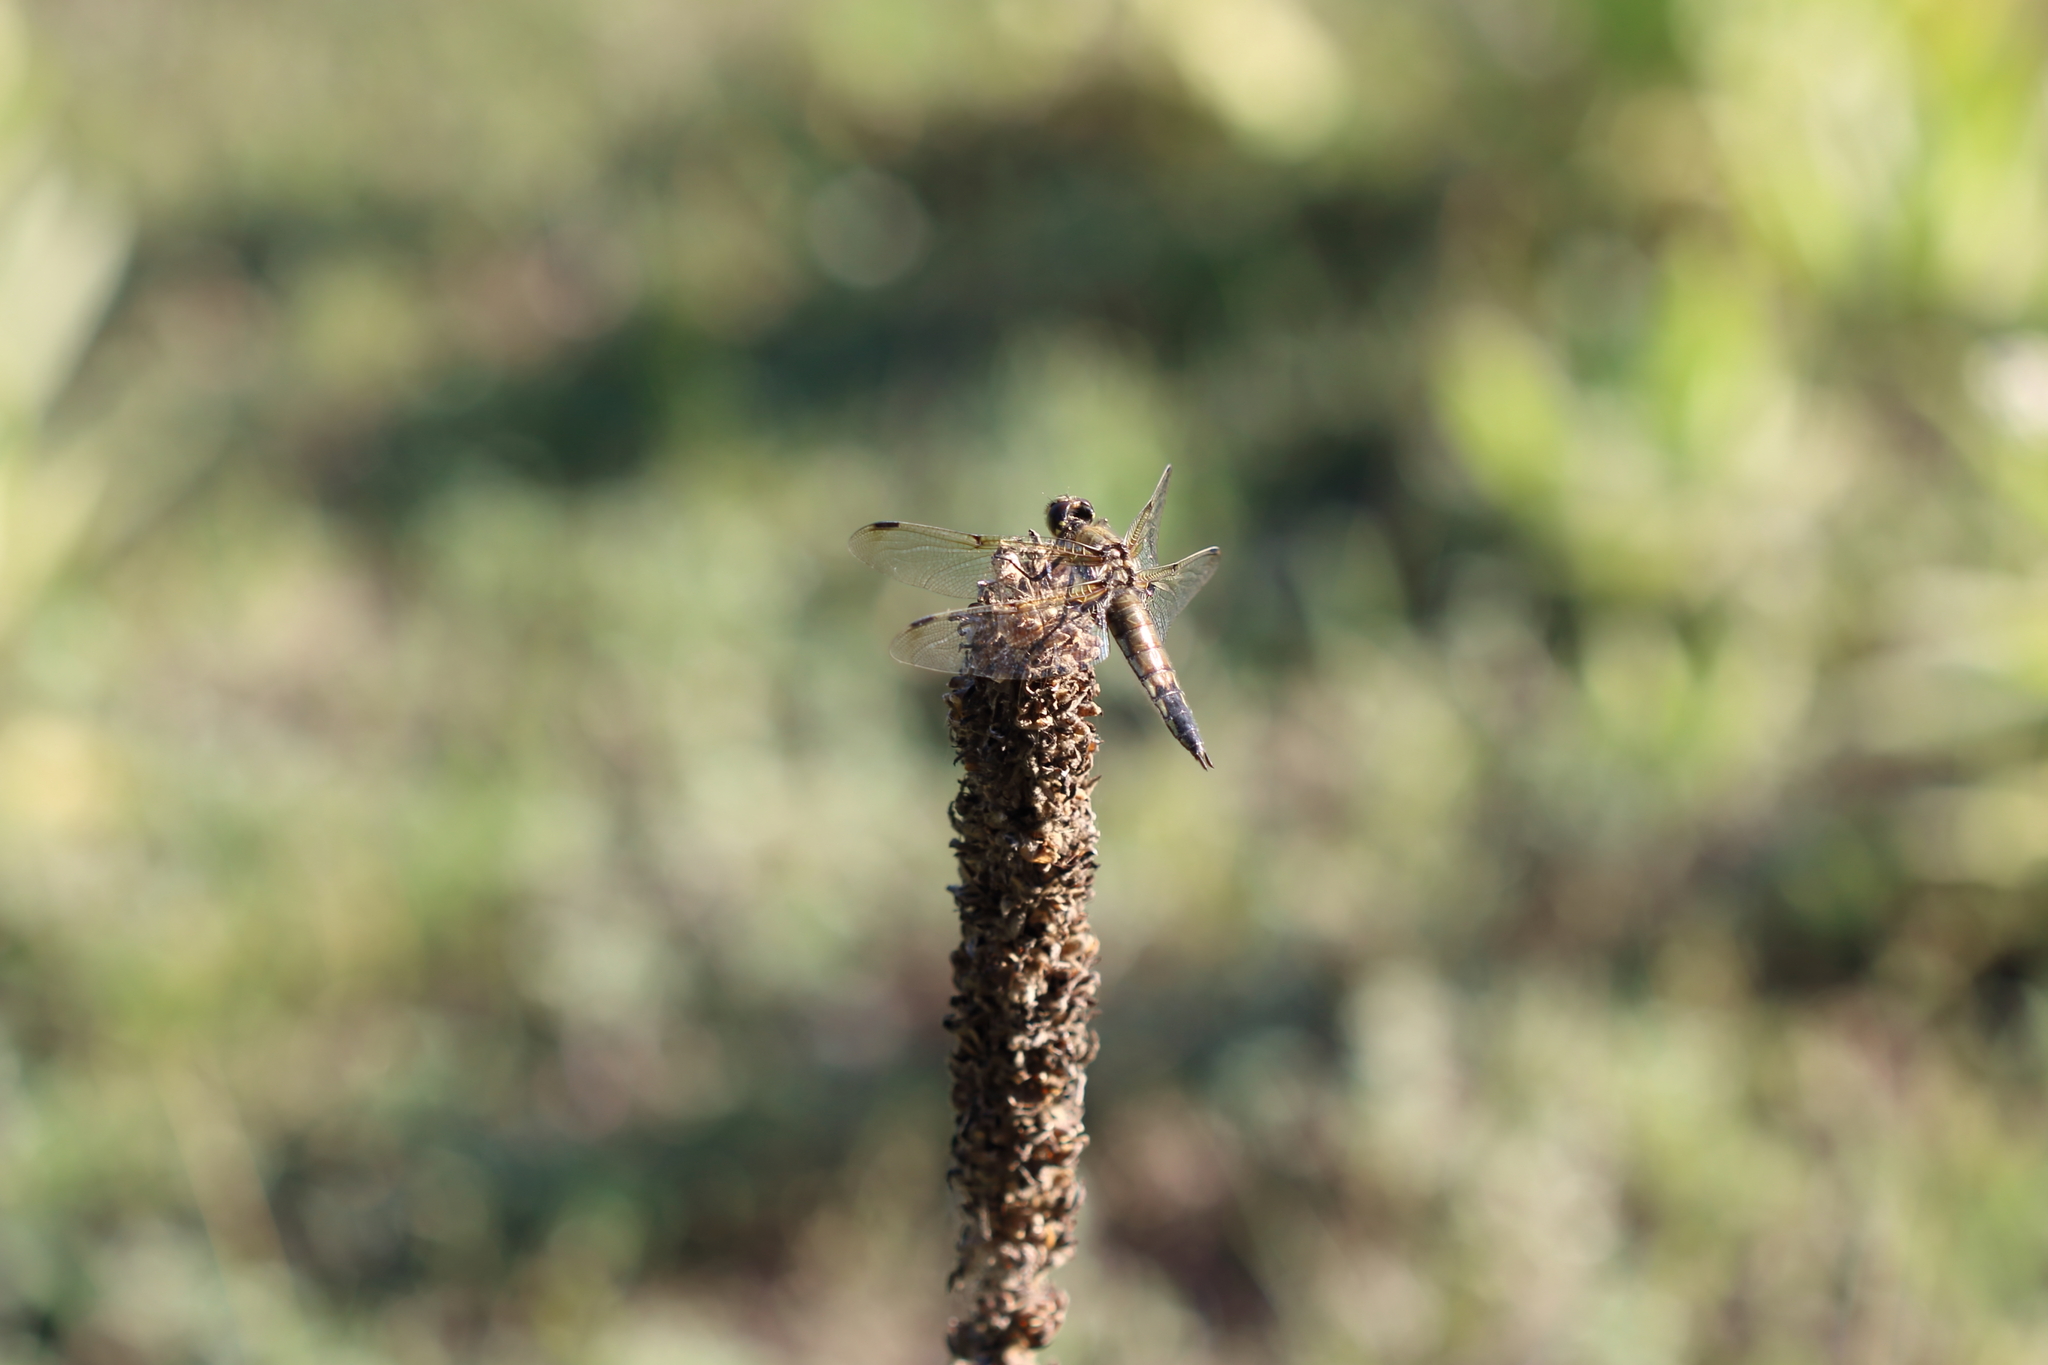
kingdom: Animalia
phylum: Arthropoda
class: Insecta
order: Odonata
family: Libellulidae
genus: Libellula
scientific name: Libellula quadrimaculata
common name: Four-spotted chaser
